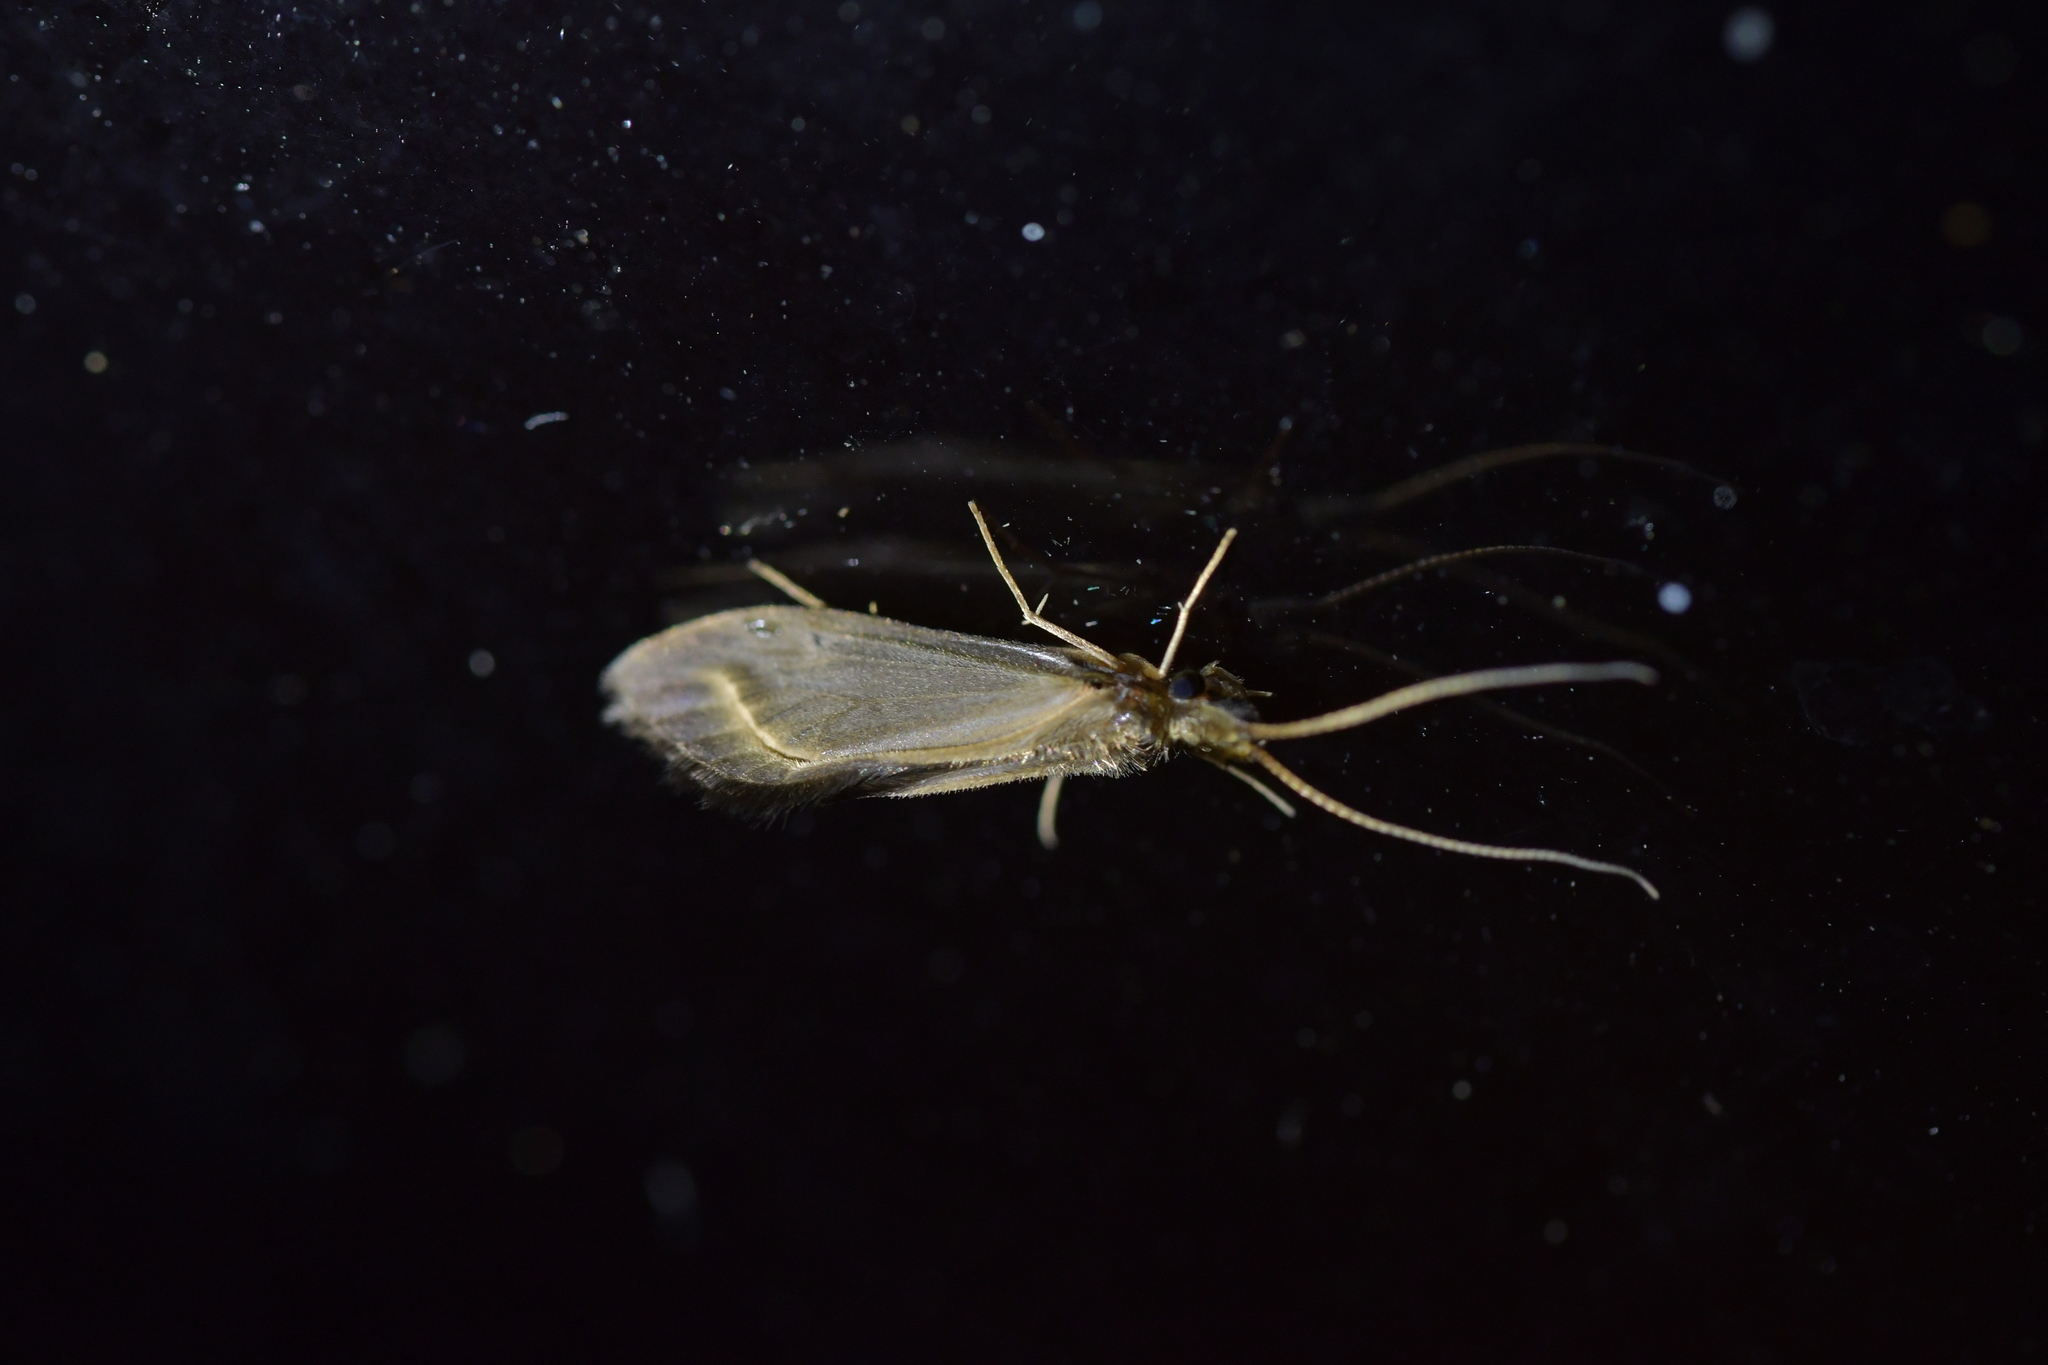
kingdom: Animalia
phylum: Arthropoda
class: Insecta
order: Trichoptera
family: Conoesucidae
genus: Olinga
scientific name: Olinga feredayi
